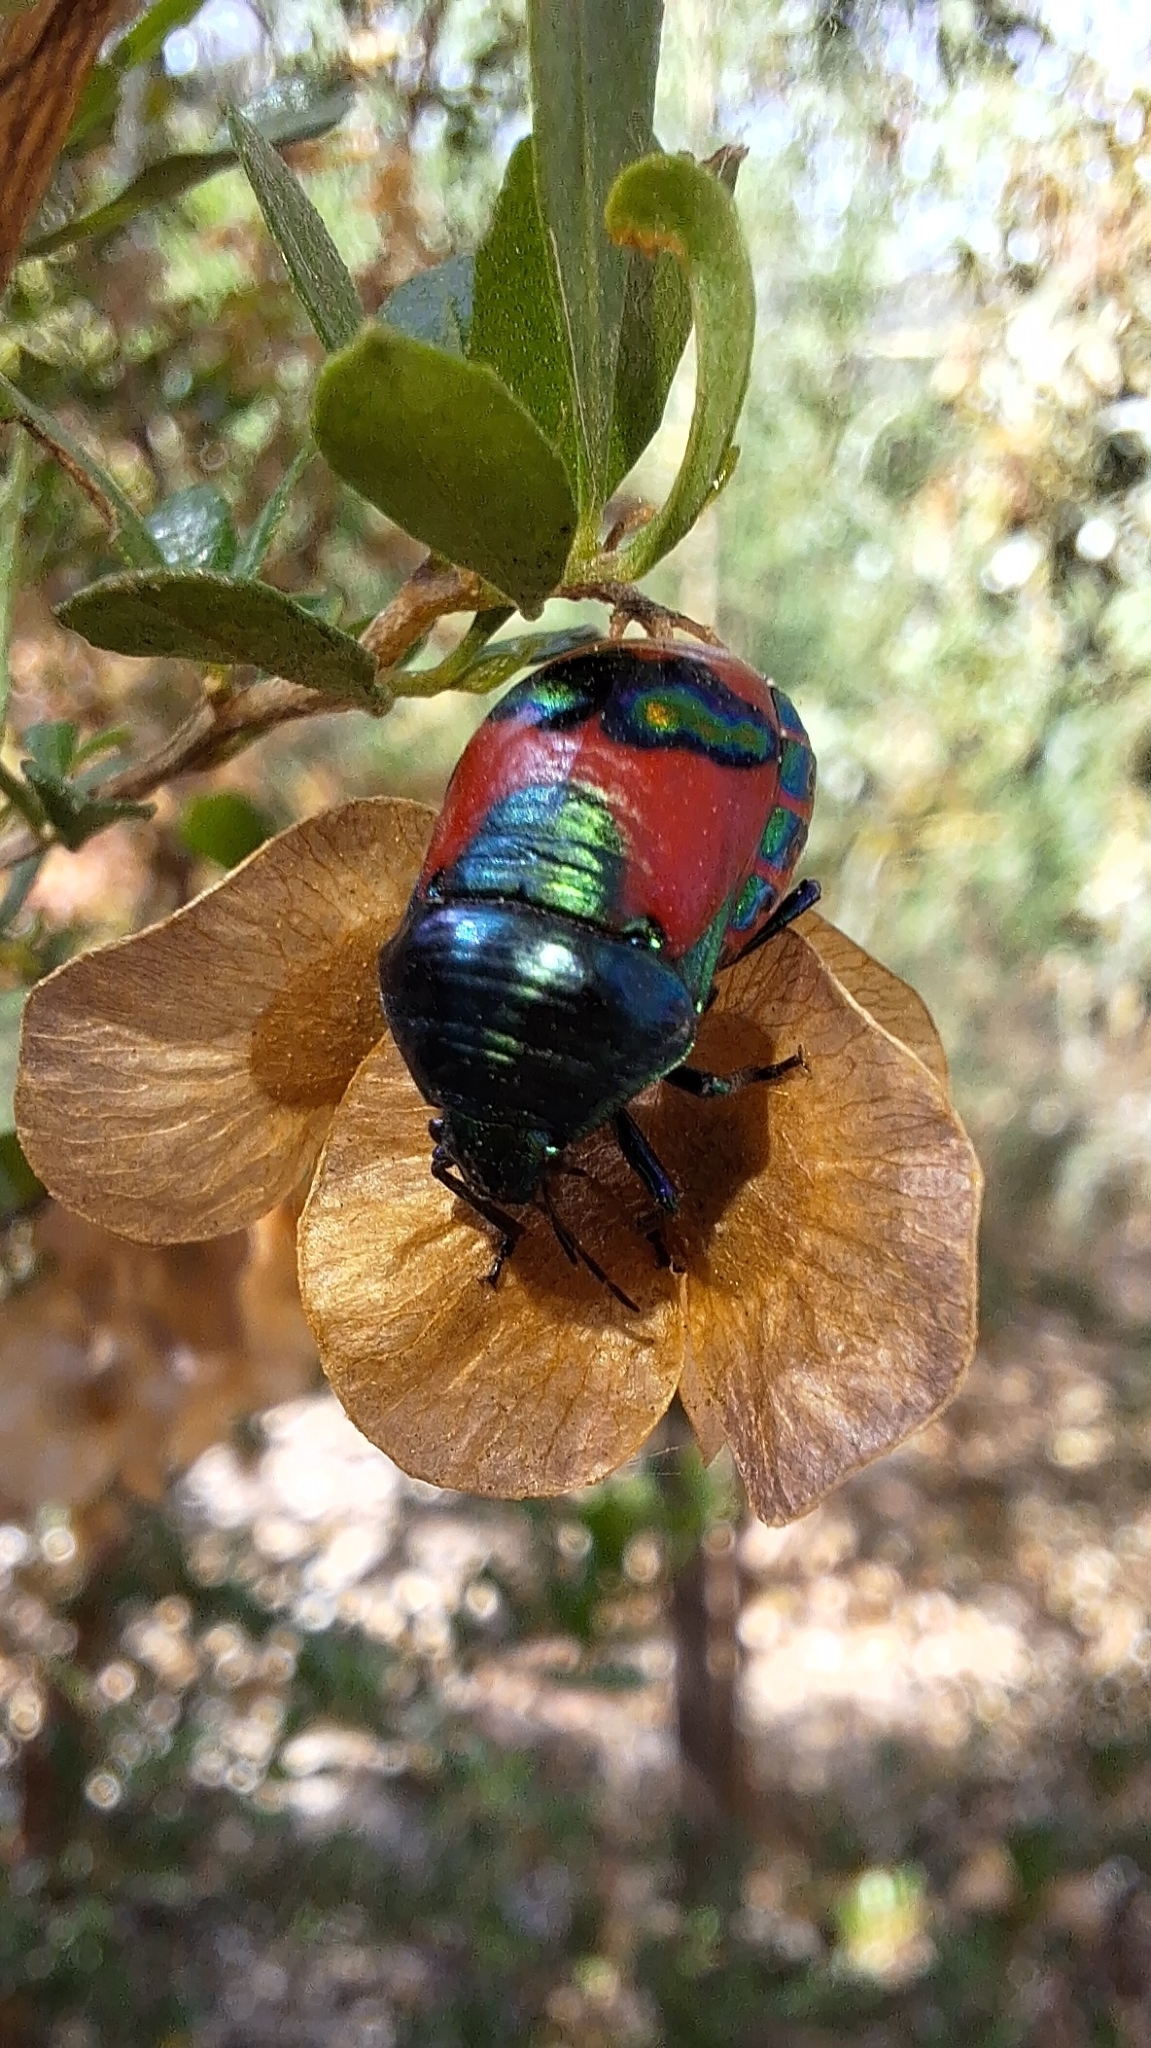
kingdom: Animalia
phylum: Arthropoda
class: Insecta
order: Hemiptera
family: Scutelleridae
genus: Choerocoris
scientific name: Choerocoris paganus
